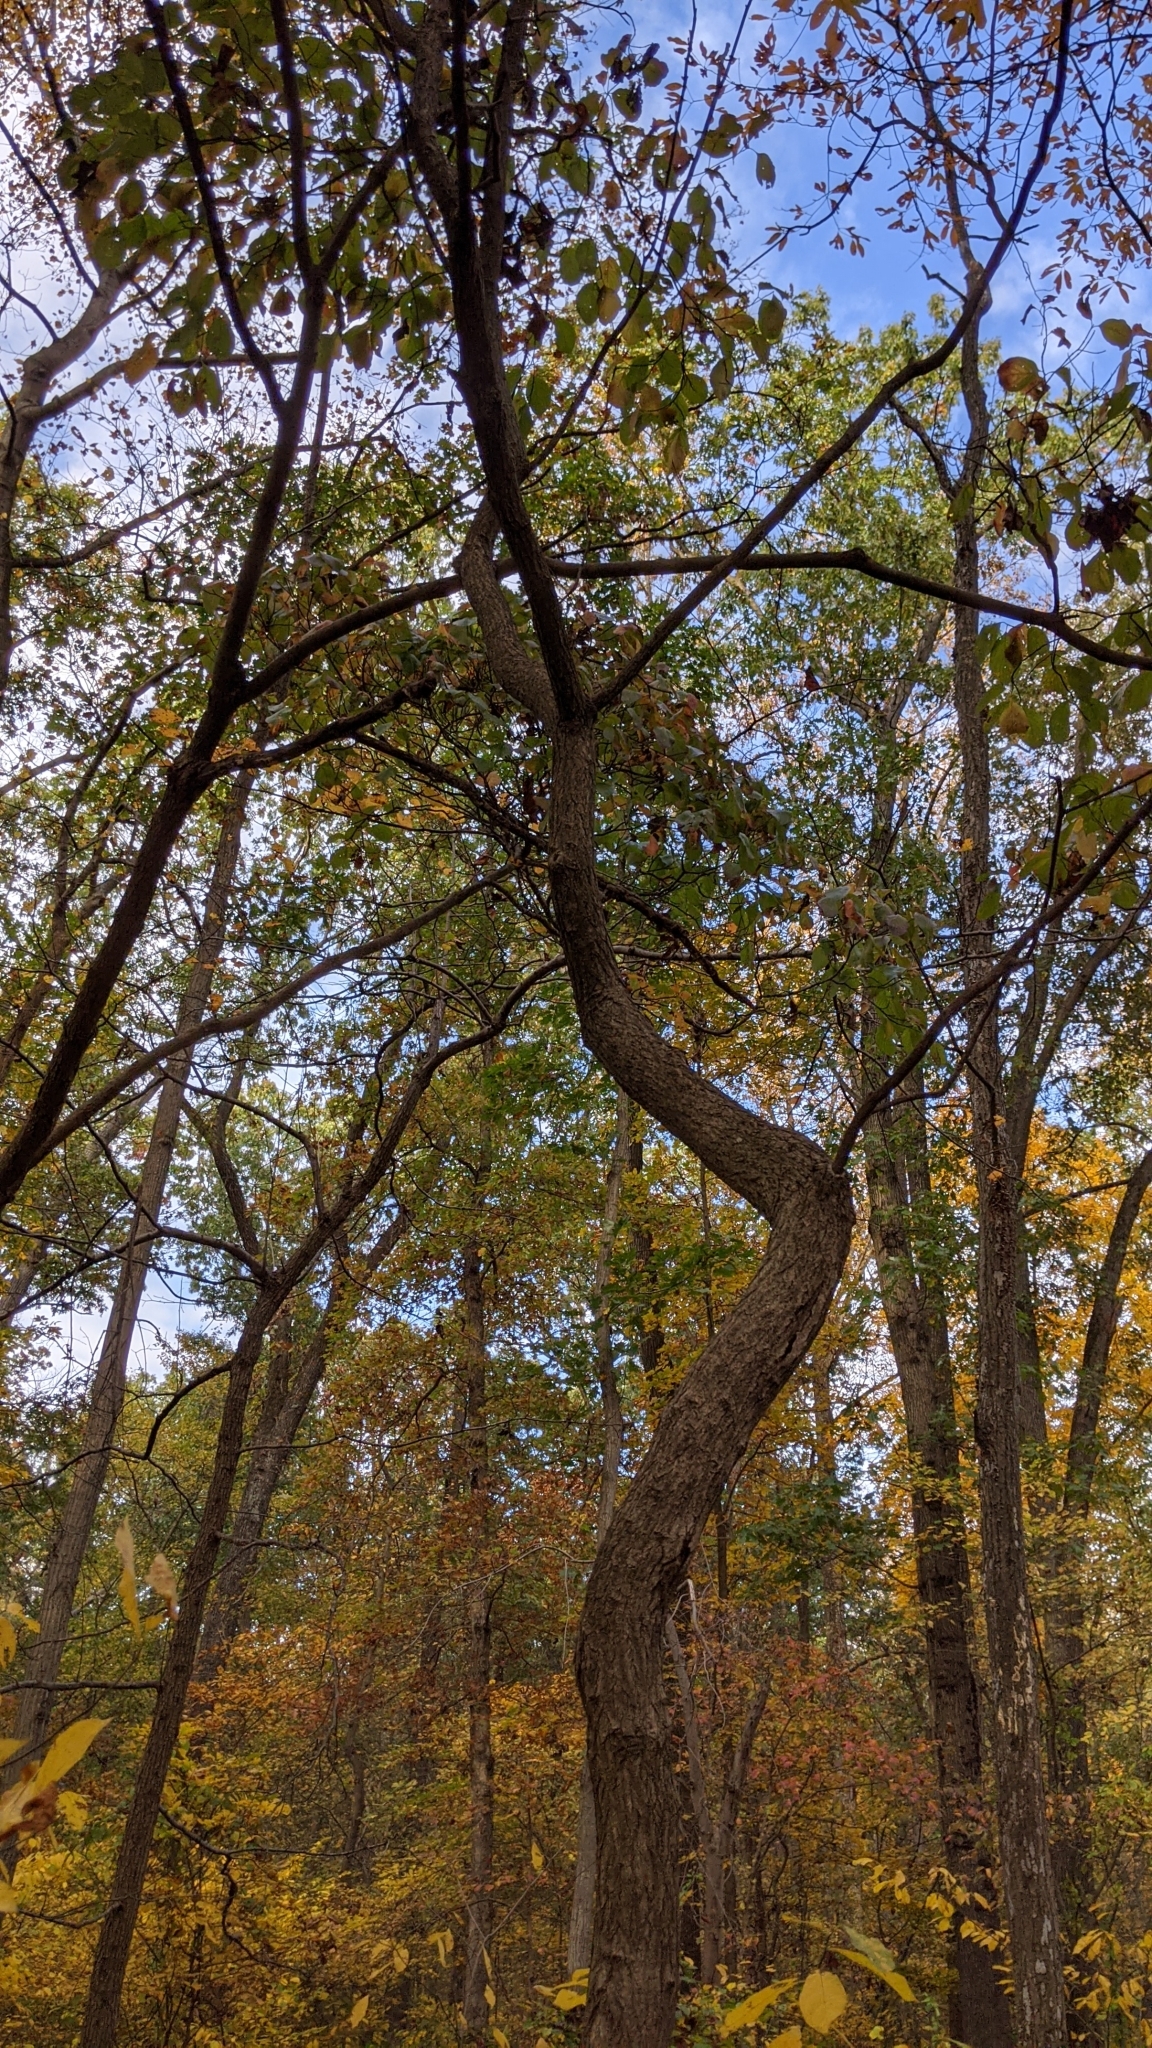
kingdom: Plantae
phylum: Tracheophyta
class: Magnoliopsida
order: Laurales
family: Lauraceae
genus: Sassafras
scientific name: Sassafras albidum
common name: Sassafras
